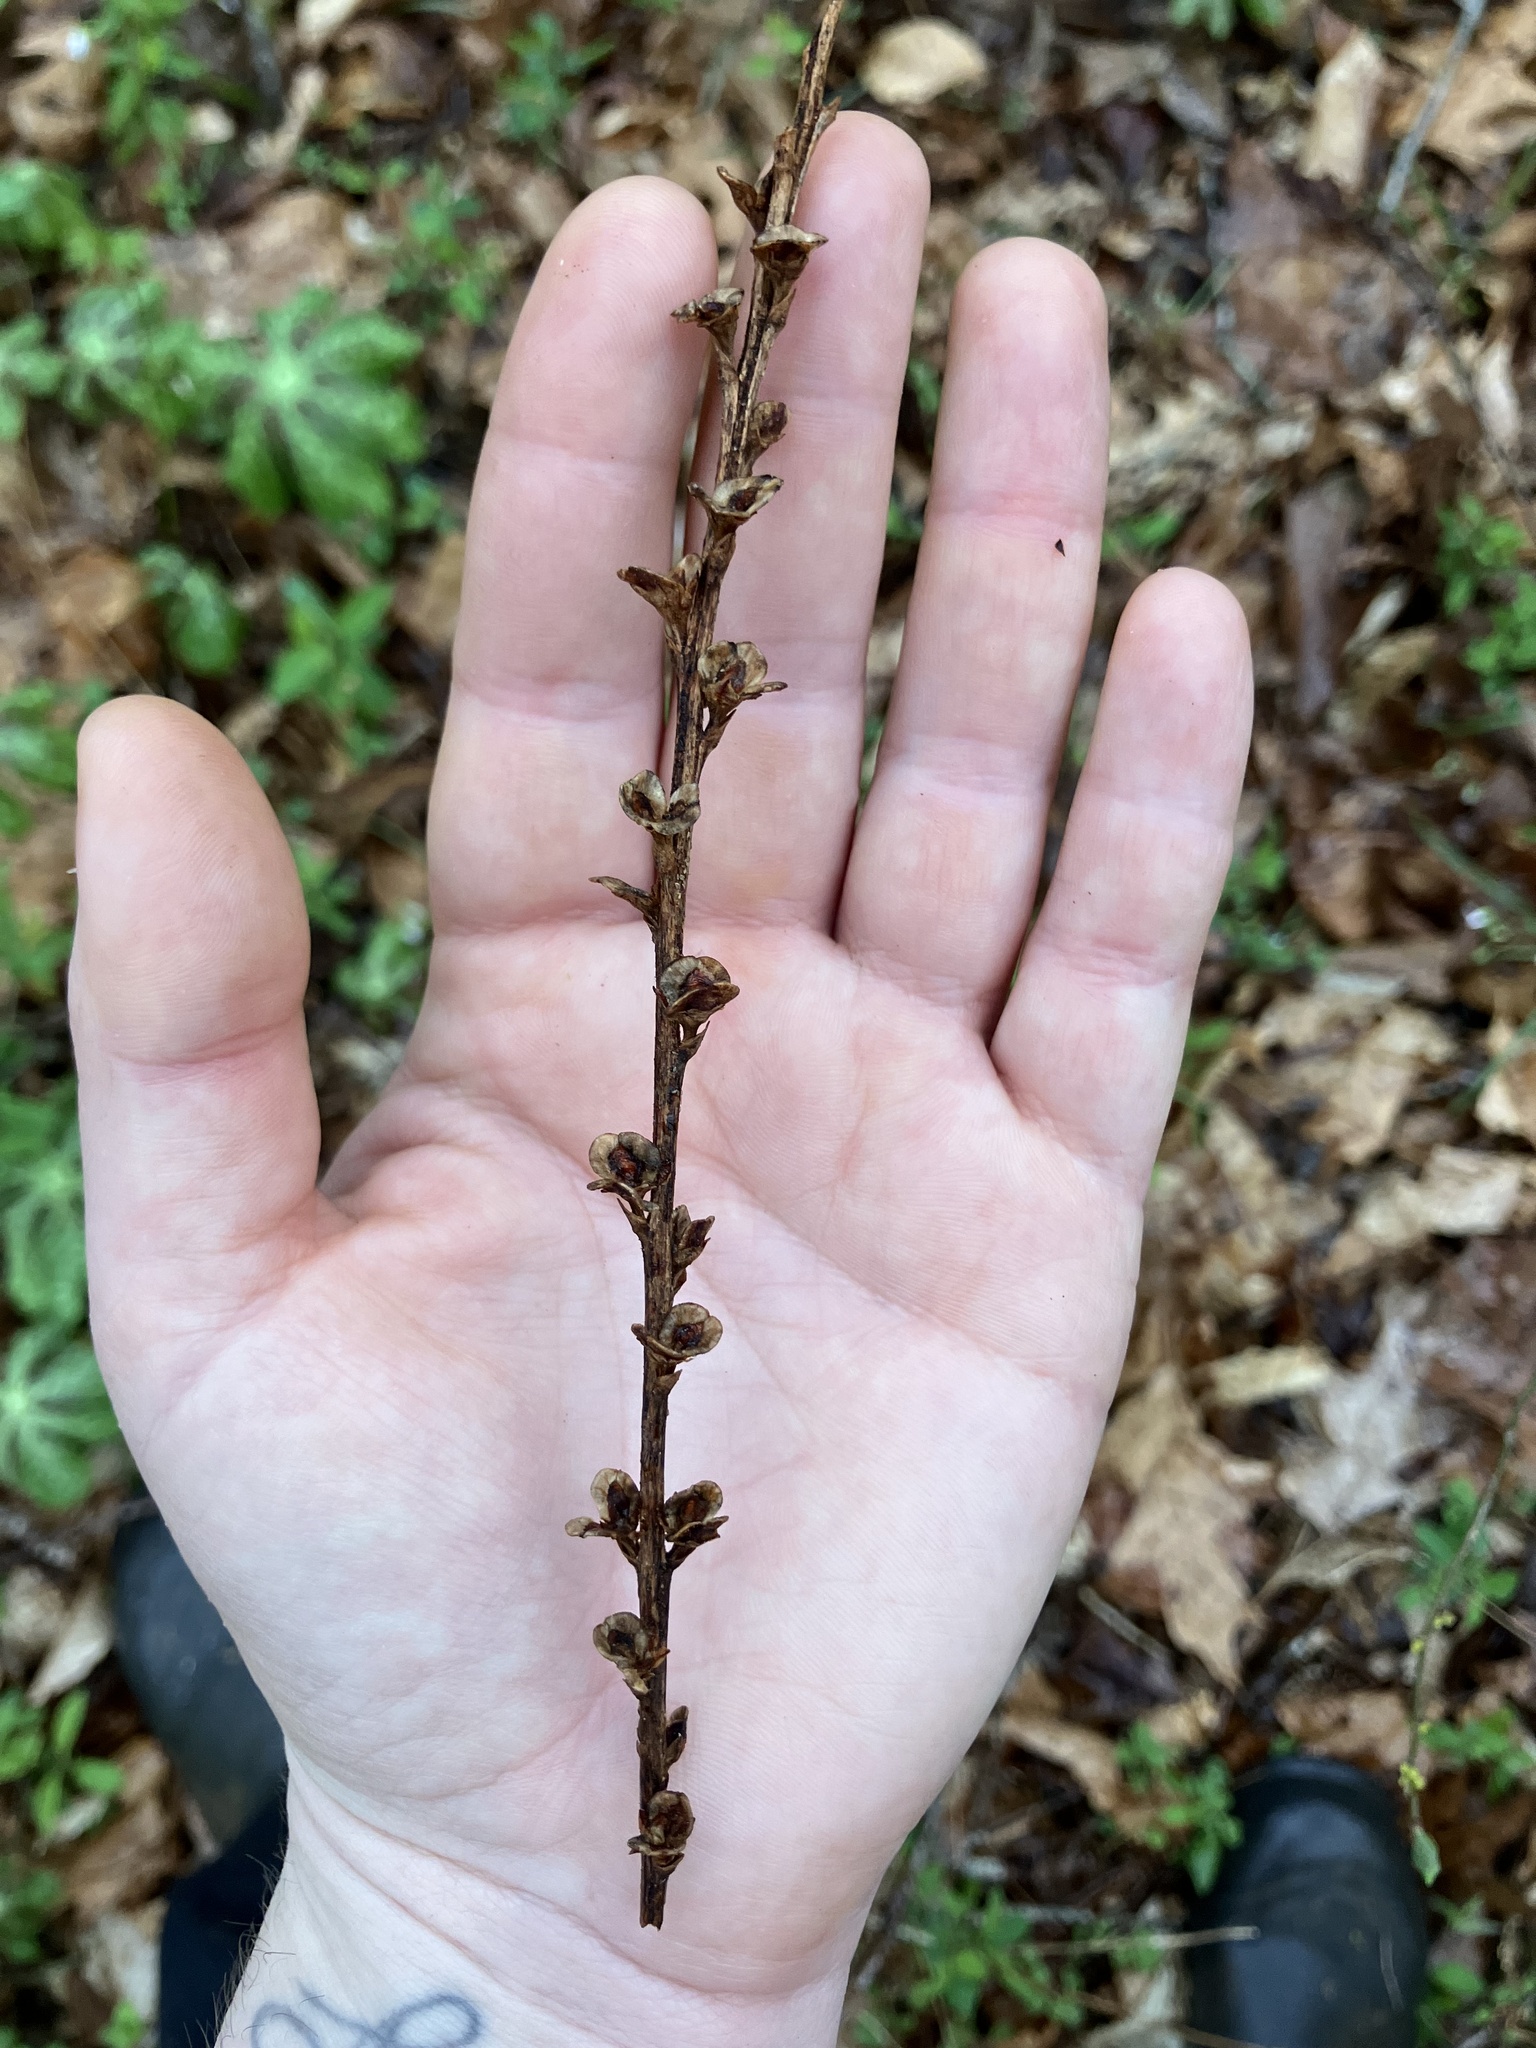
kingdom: Plantae
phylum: Tracheophyta
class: Magnoliopsida
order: Lamiales
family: Orobanchaceae
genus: Epifagus
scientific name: Epifagus virginiana
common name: Beechdrops
